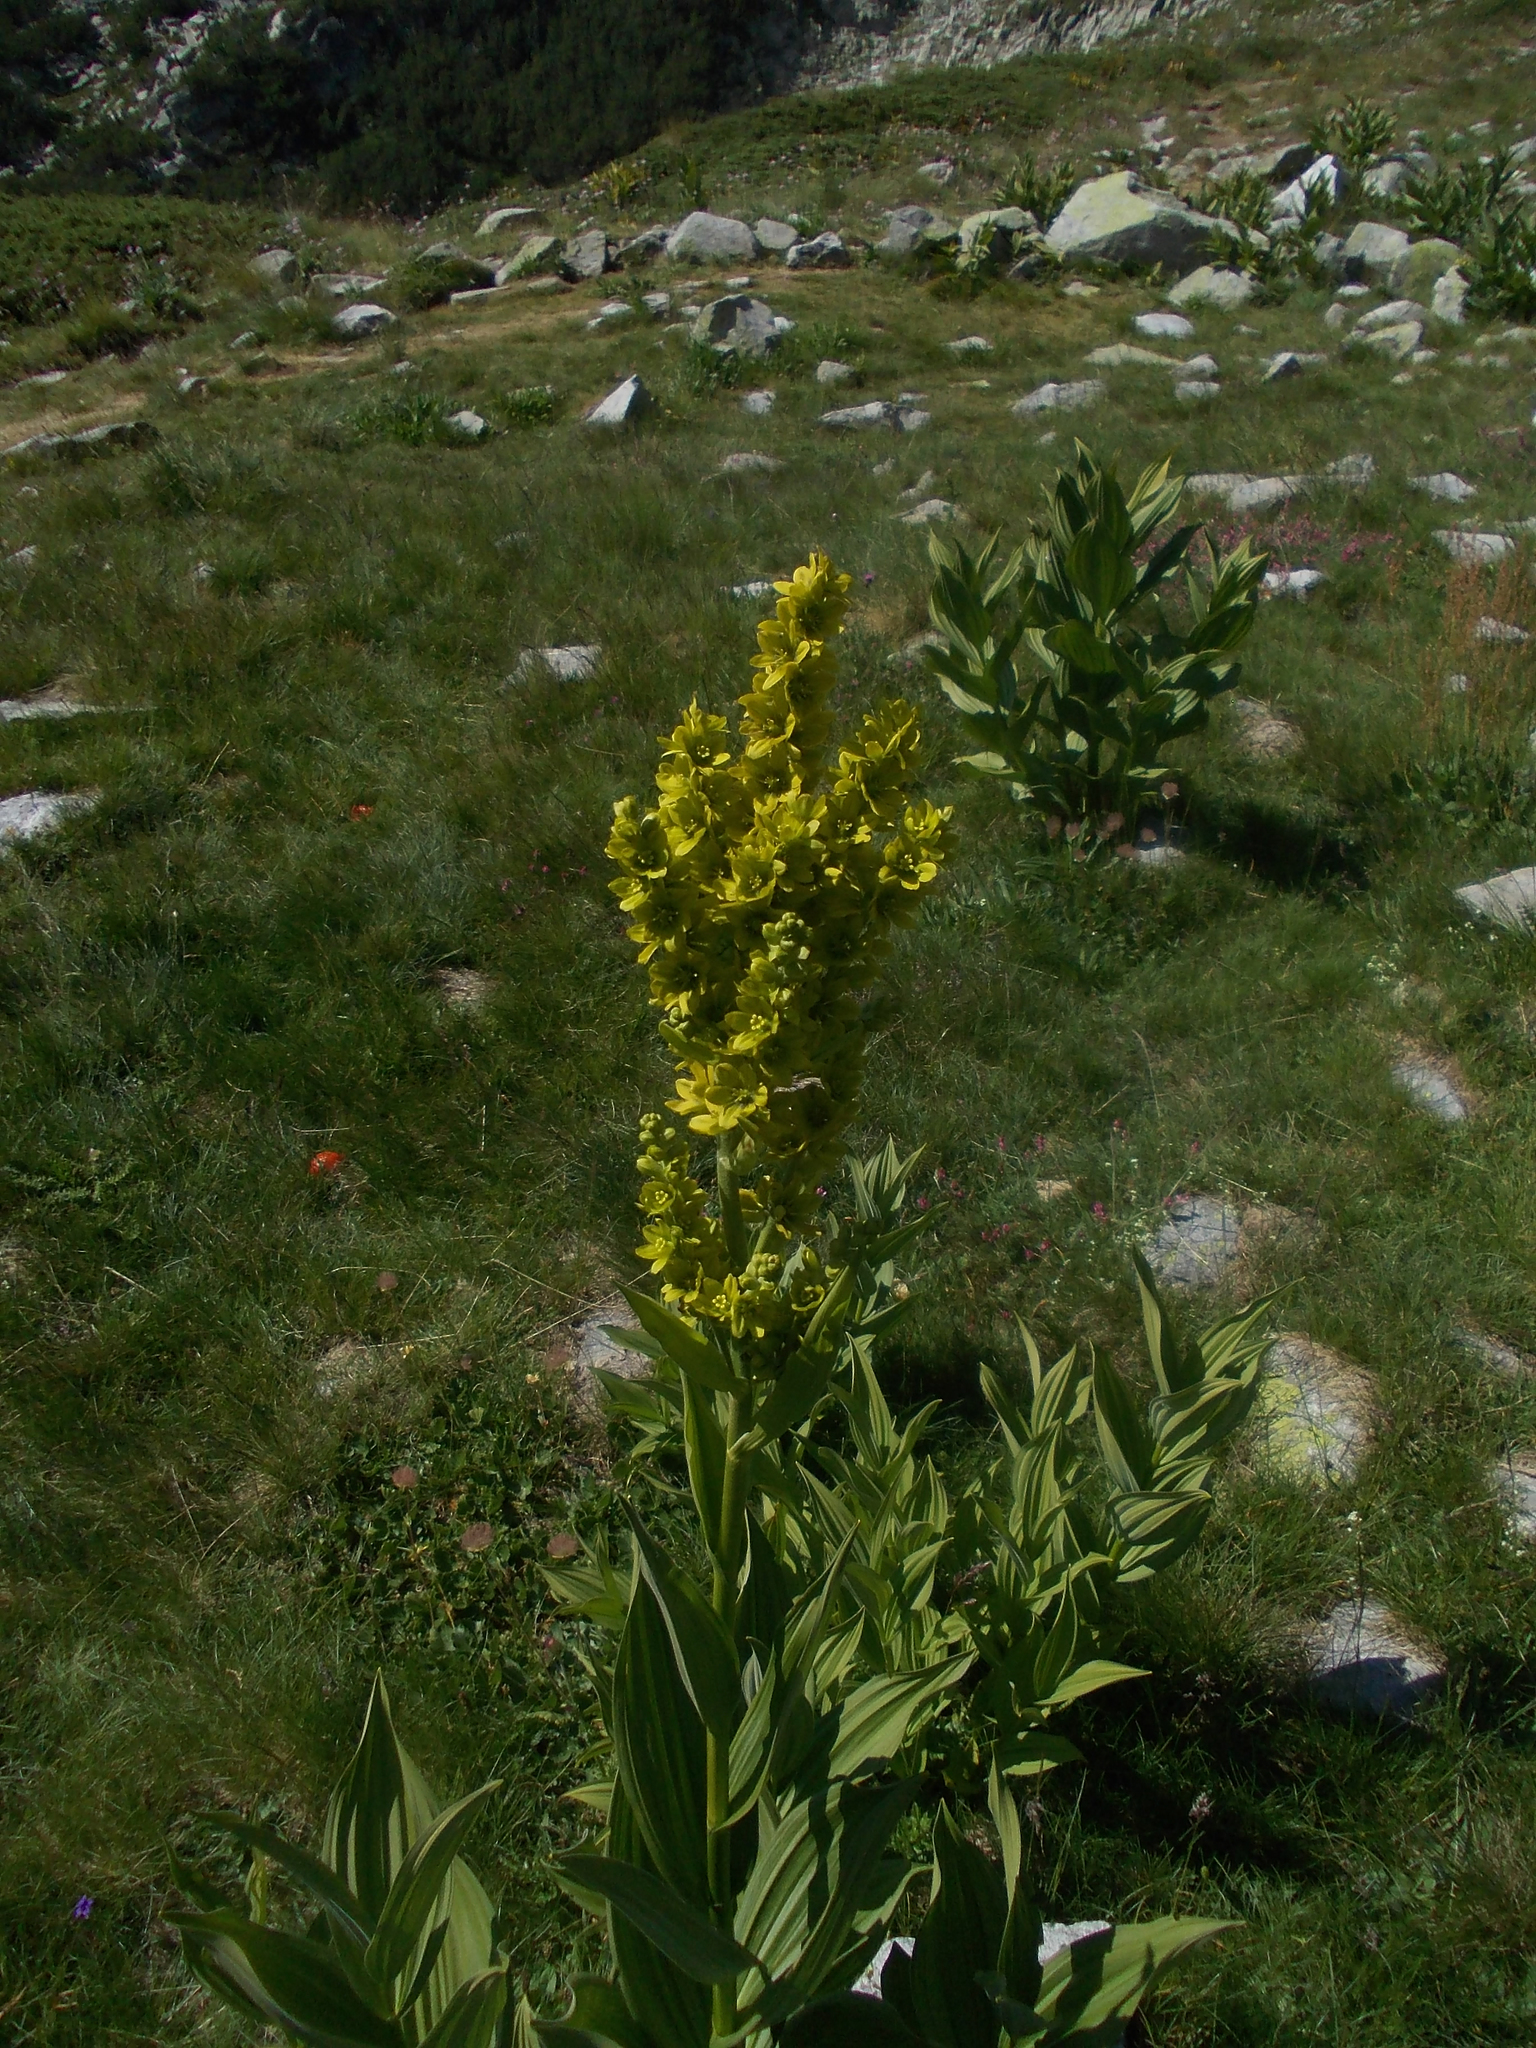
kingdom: Plantae
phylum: Tracheophyta
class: Liliopsida
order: Liliales
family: Melanthiaceae
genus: Veratrum
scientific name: Veratrum lobelianum
